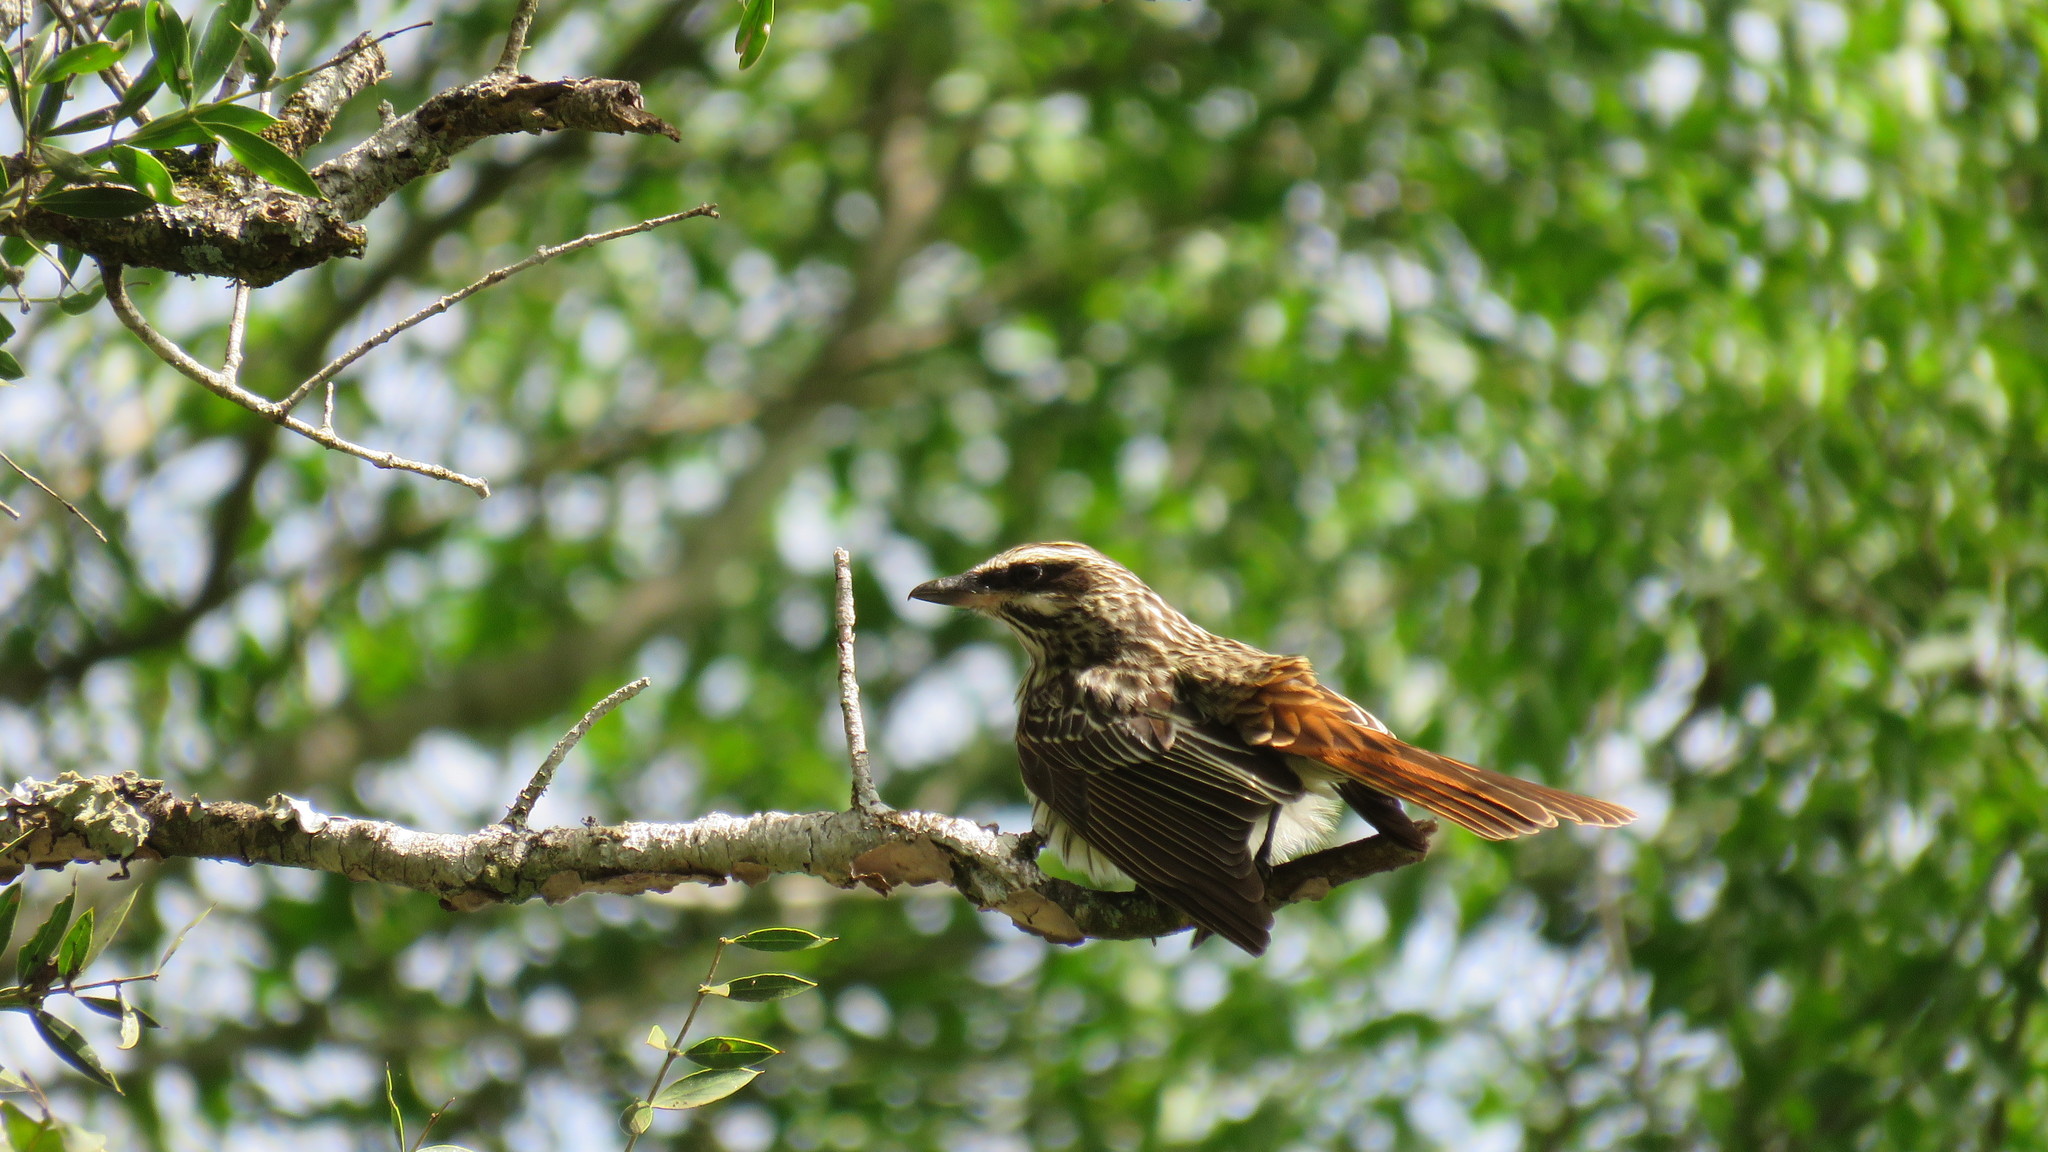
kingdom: Animalia
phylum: Chordata
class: Aves
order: Passeriformes
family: Tyrannidae
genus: Myiodynastes
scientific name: Myiodynastes maculatus
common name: Streaked flycatcher
